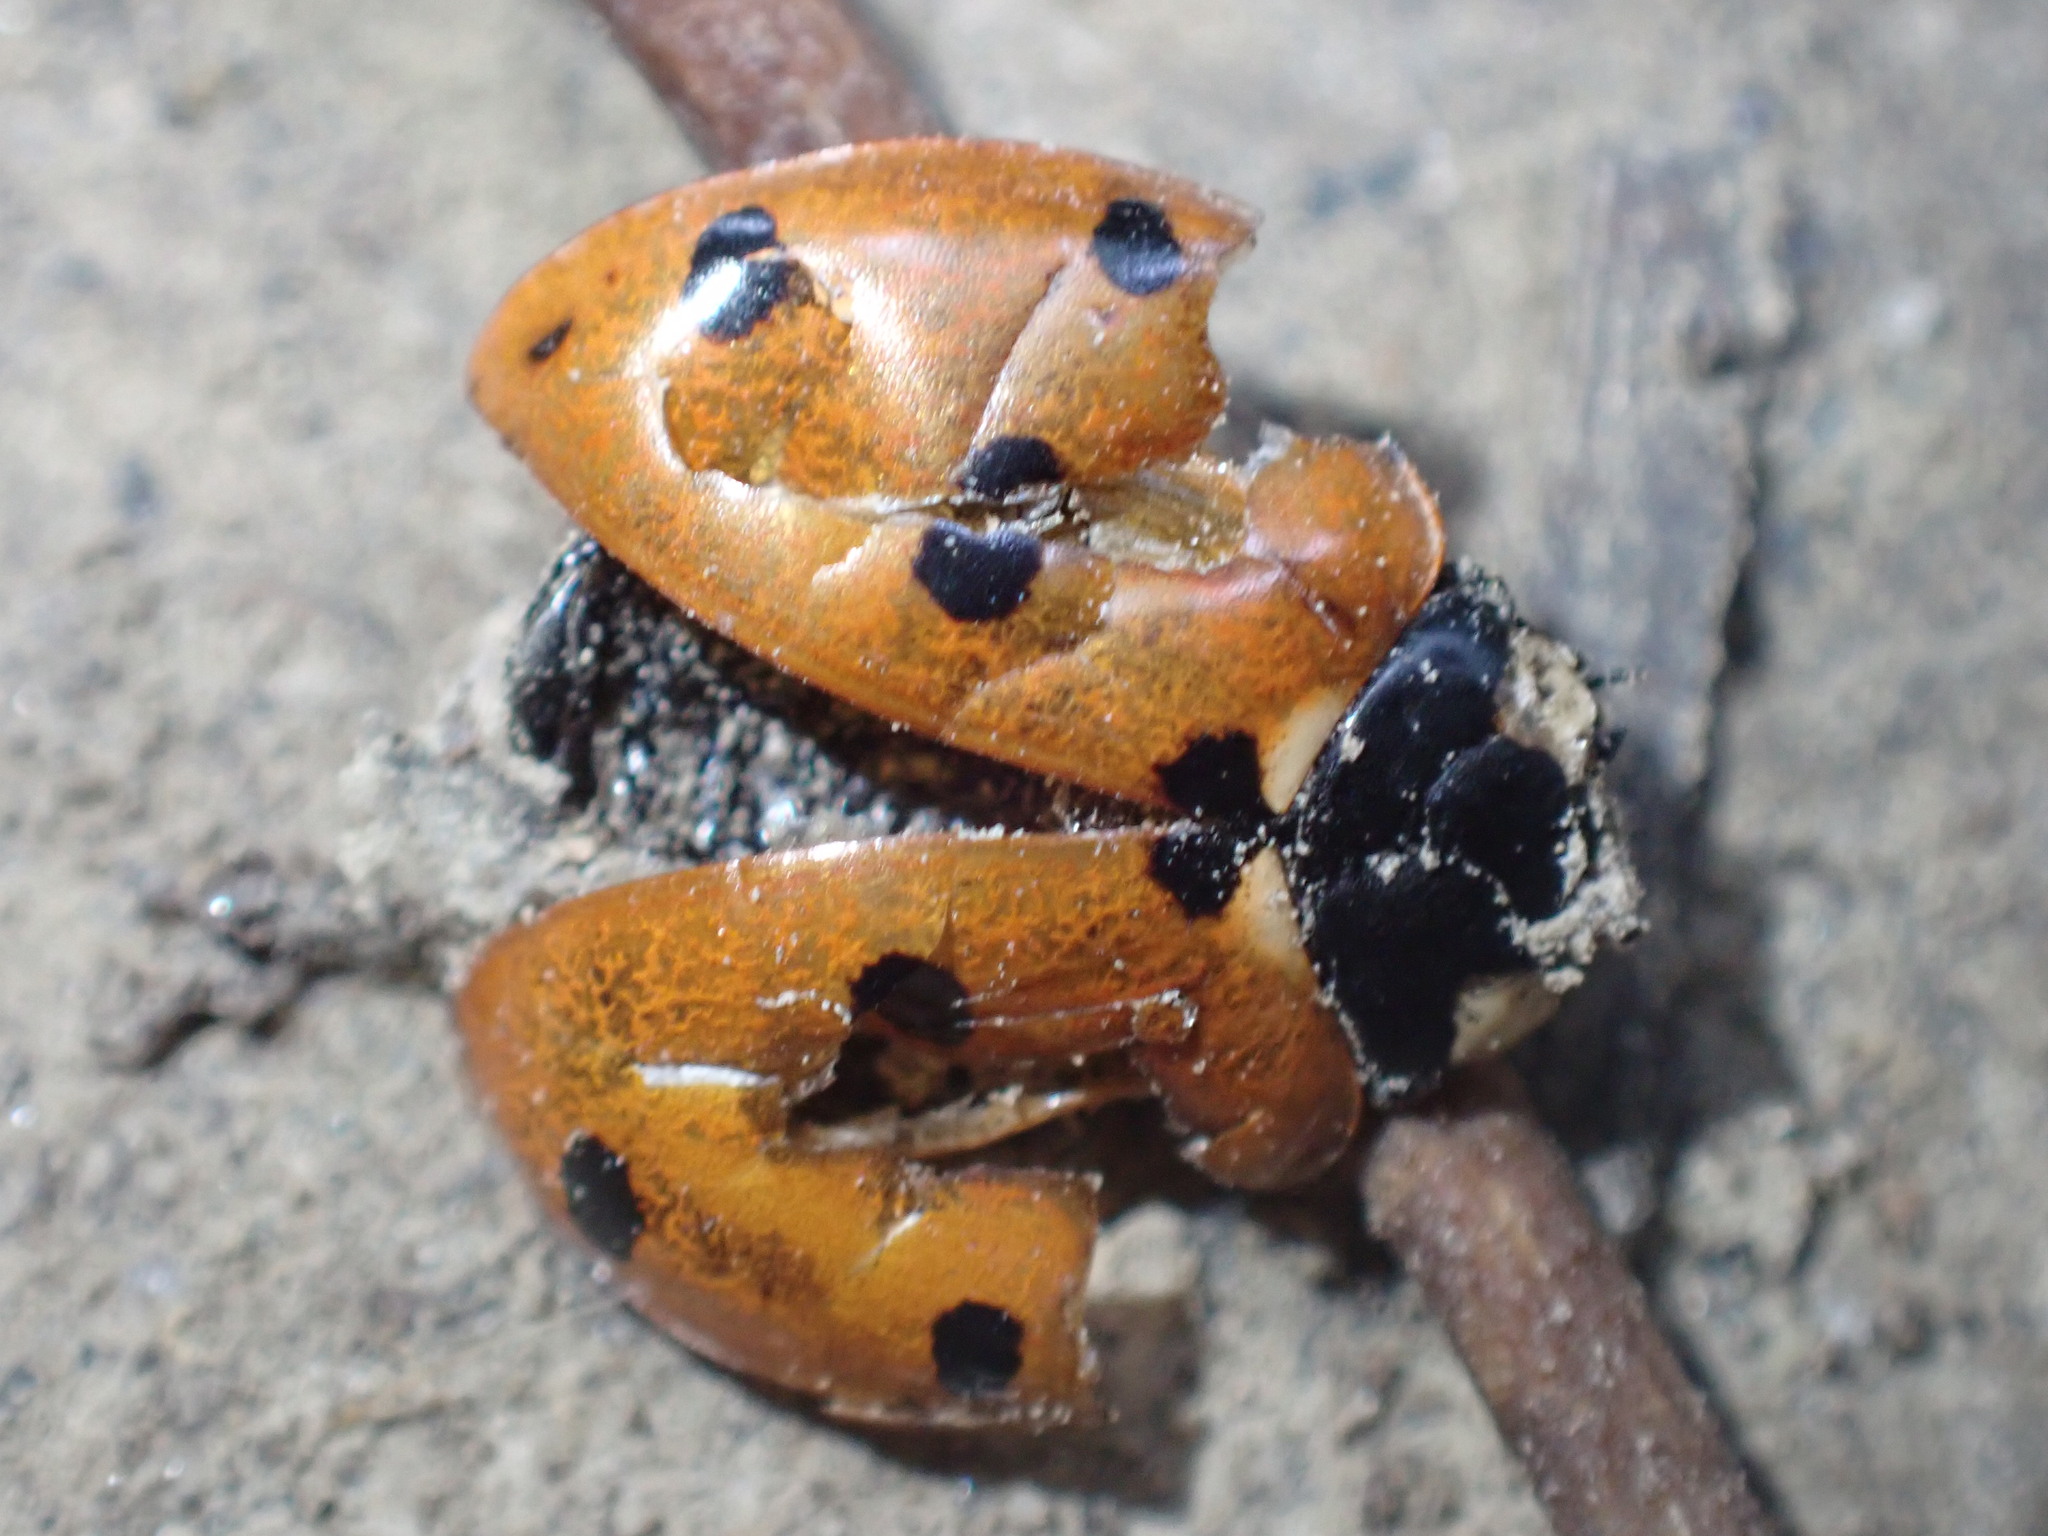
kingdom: Animalia
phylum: Arthropoda
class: Insecta
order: Coleoptera
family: Coccinellidae
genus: Coccinella
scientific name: Coccinella septempunctata
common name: Sevenspotted lady beetle
